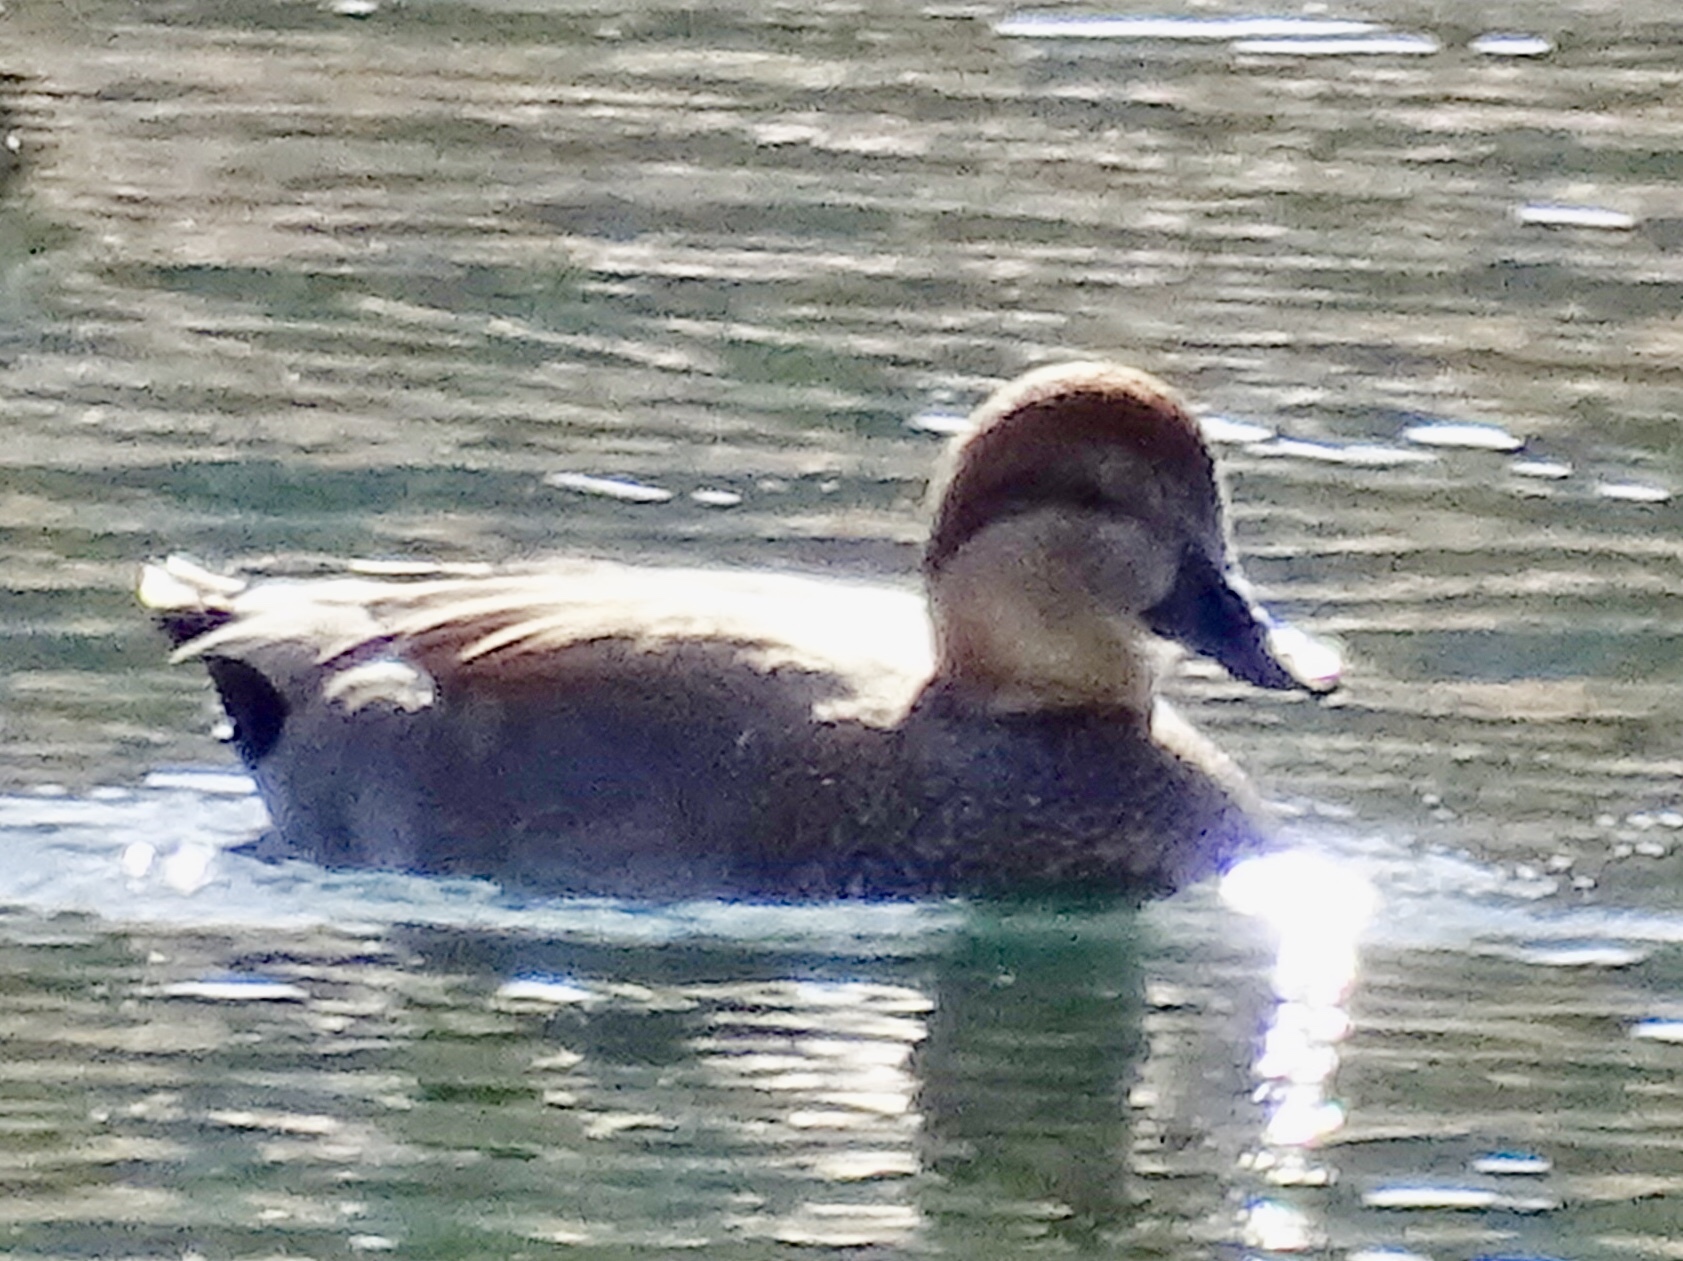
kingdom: Animalia
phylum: Chordata
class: Aves
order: Anseriformes
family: Anatidae
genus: Mareca
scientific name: Mareca strepera
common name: Gadwall
